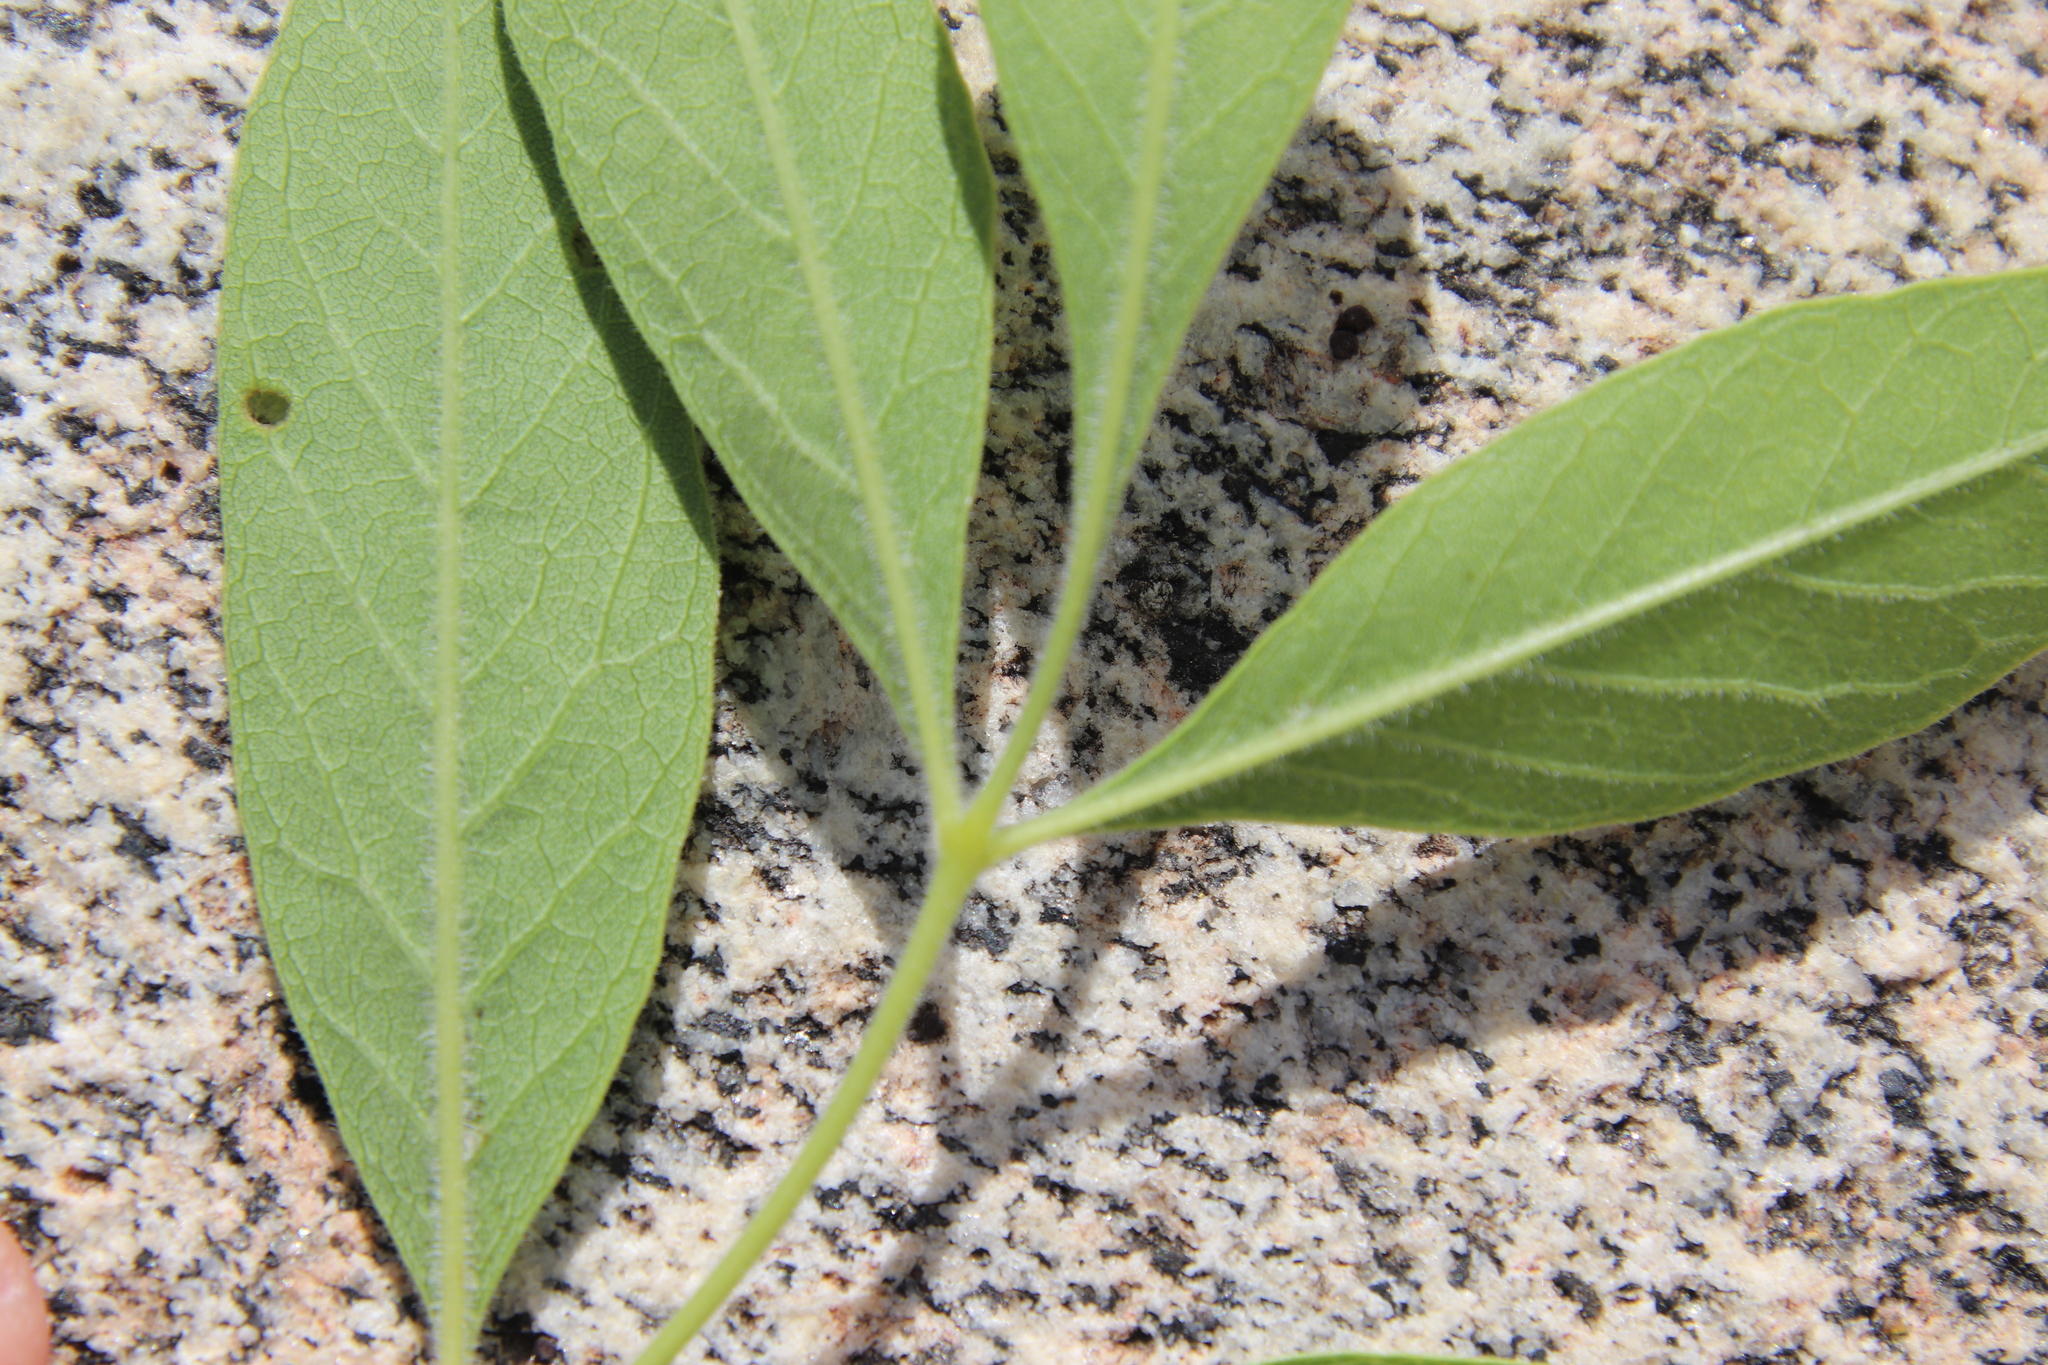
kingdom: Plantae
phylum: Tracheophyta
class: Magnoliopsida
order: Lamiales
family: Oleaceae
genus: Fraxinus
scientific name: Fraxinus velutina
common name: Arizon ash
